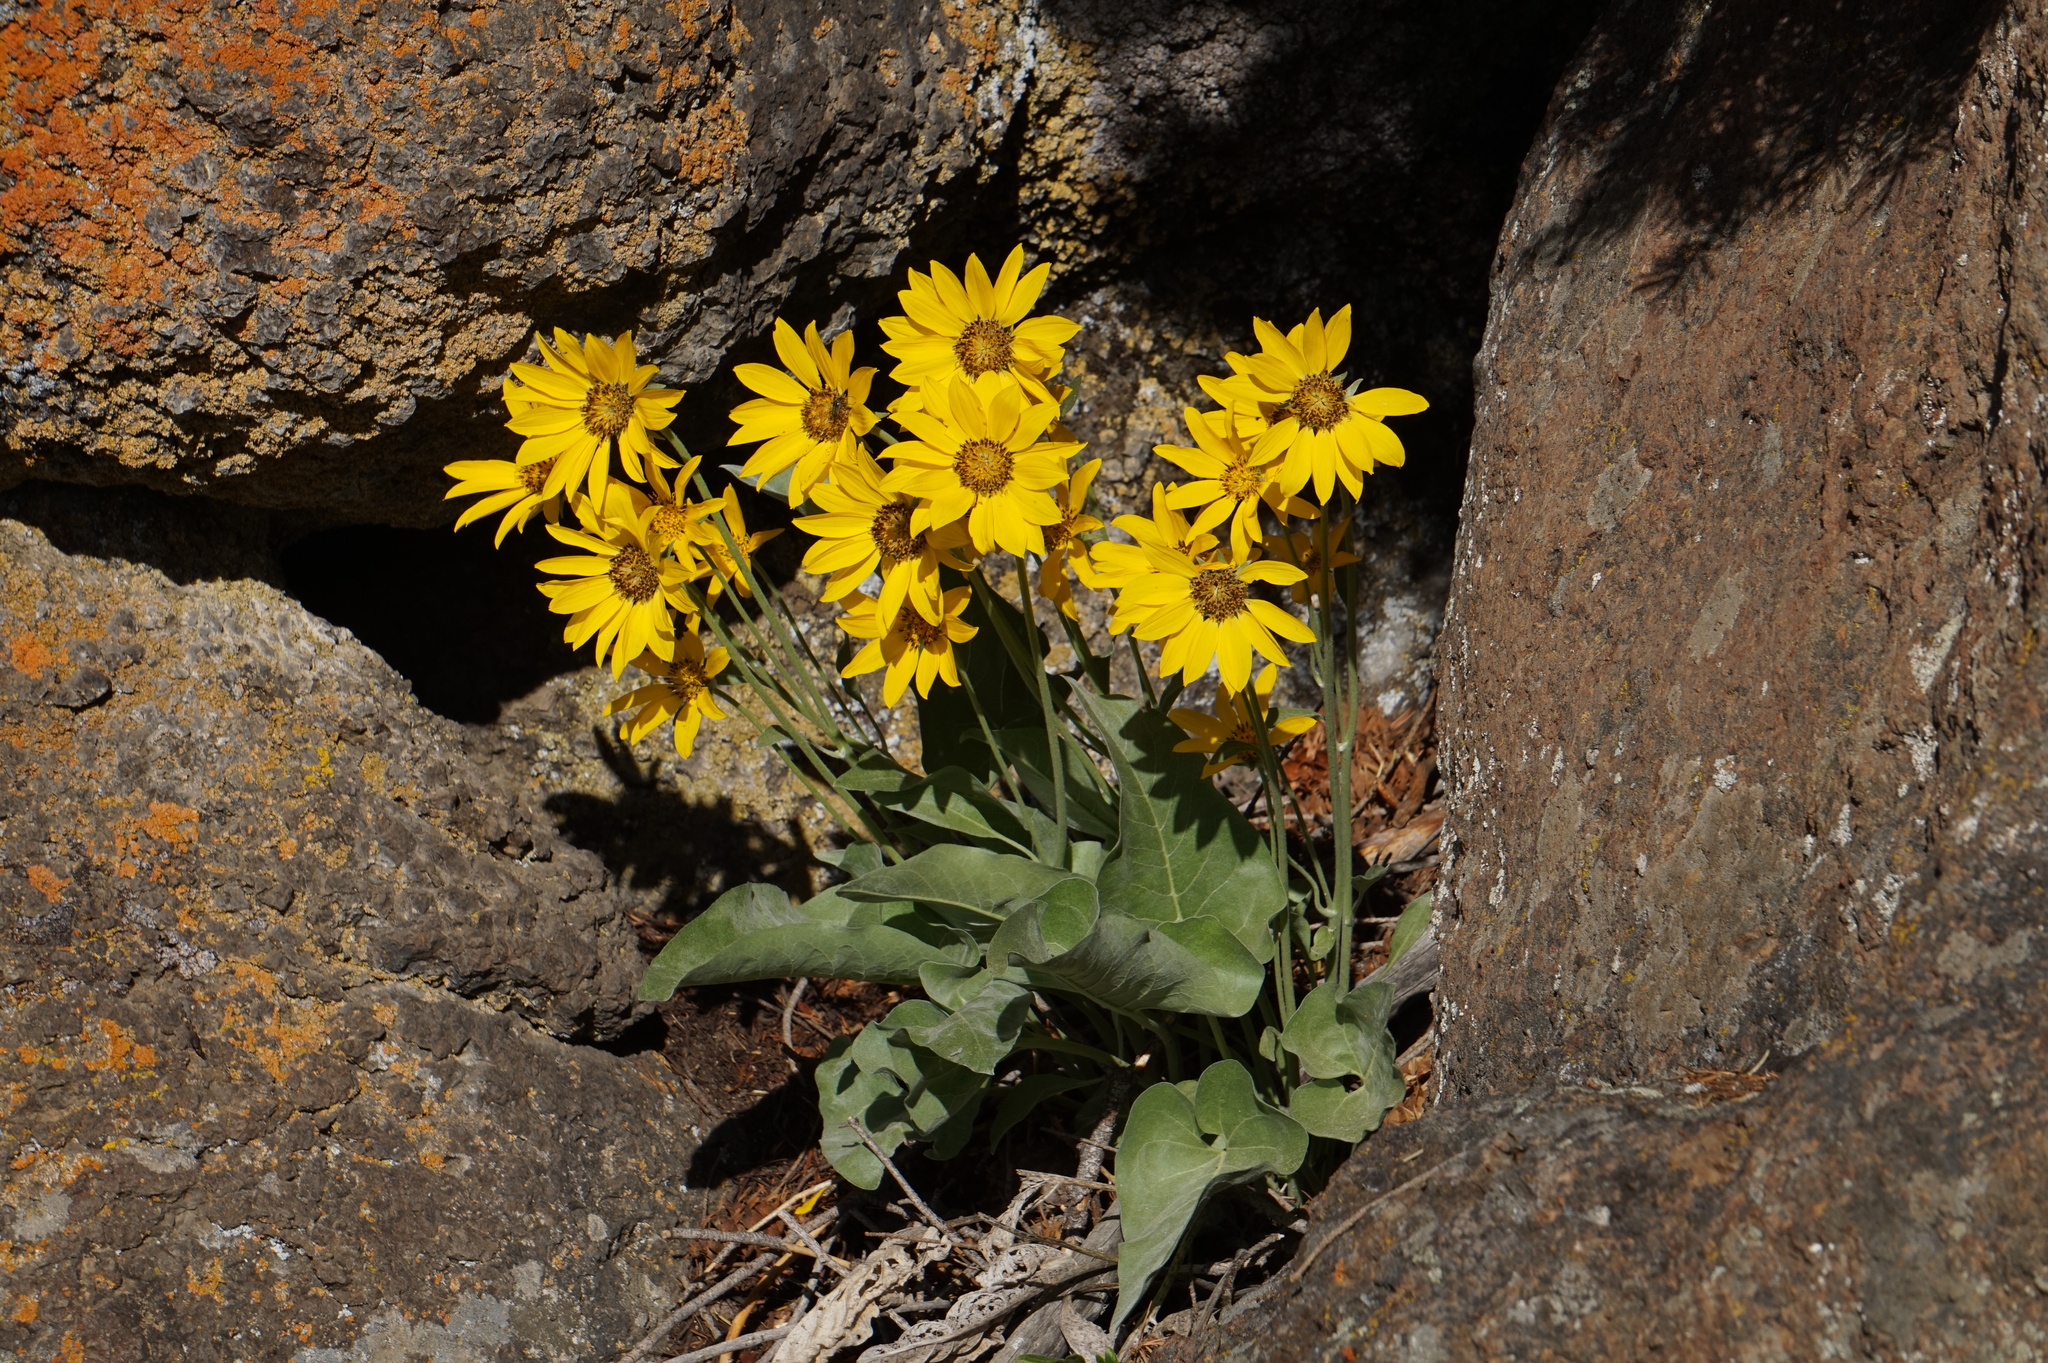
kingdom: Plantae
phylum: Tracheophyta
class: Magnoliopsida
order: Asterales
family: Asteraceae
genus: Wyethia
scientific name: Wyethia sagittata
